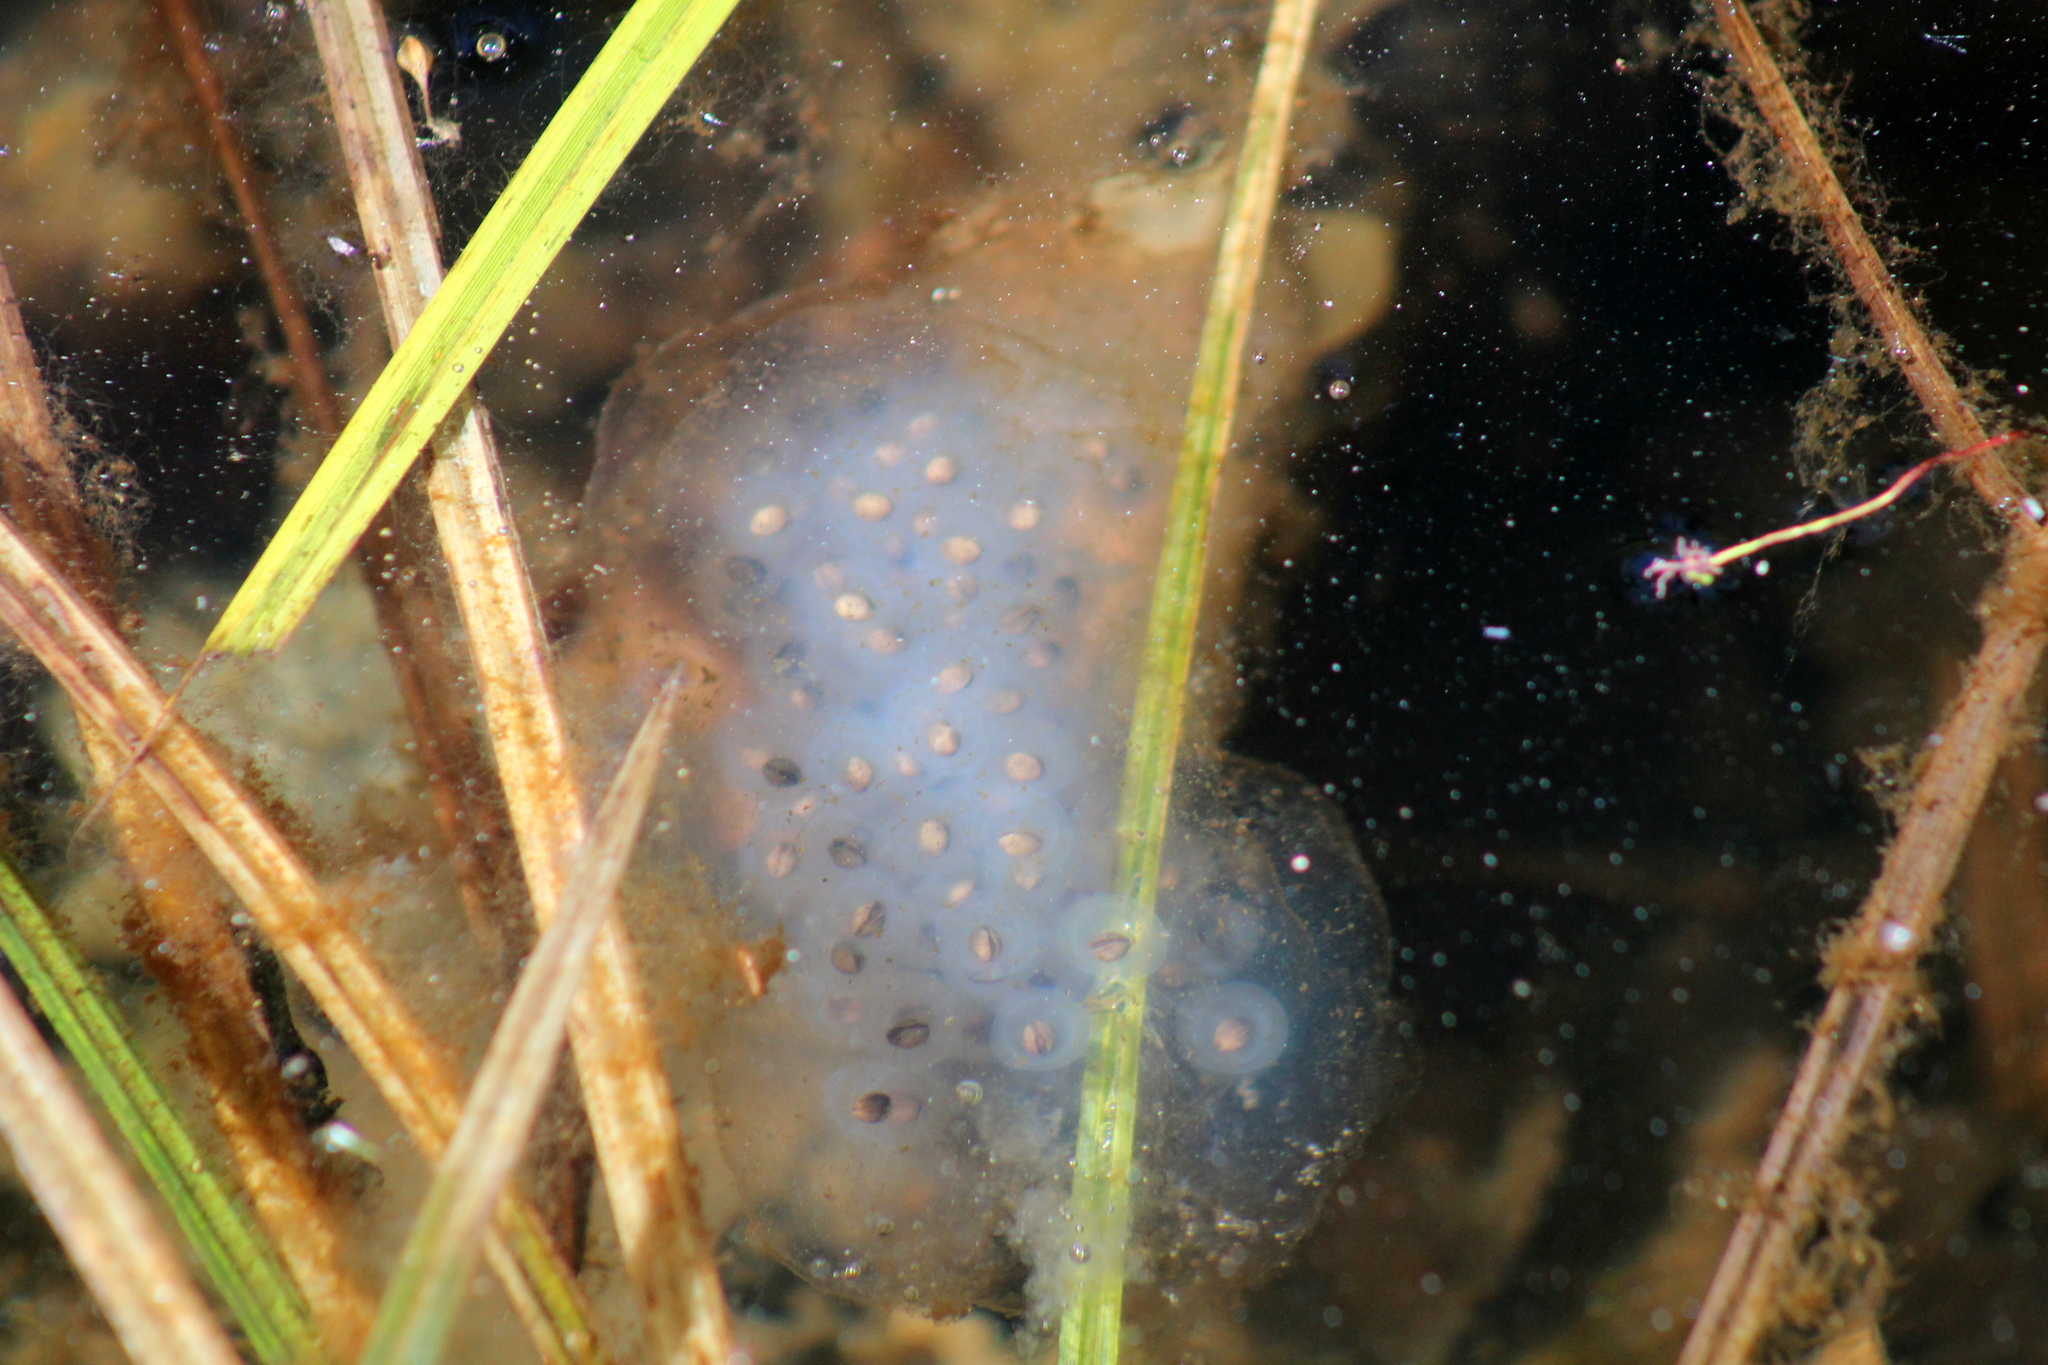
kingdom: Animalia
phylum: Chordata
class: Amphibia
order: Caudata
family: Ambystomatidae
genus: Ambystoma
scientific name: Ambystoma maculatum
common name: Spotted salamander
